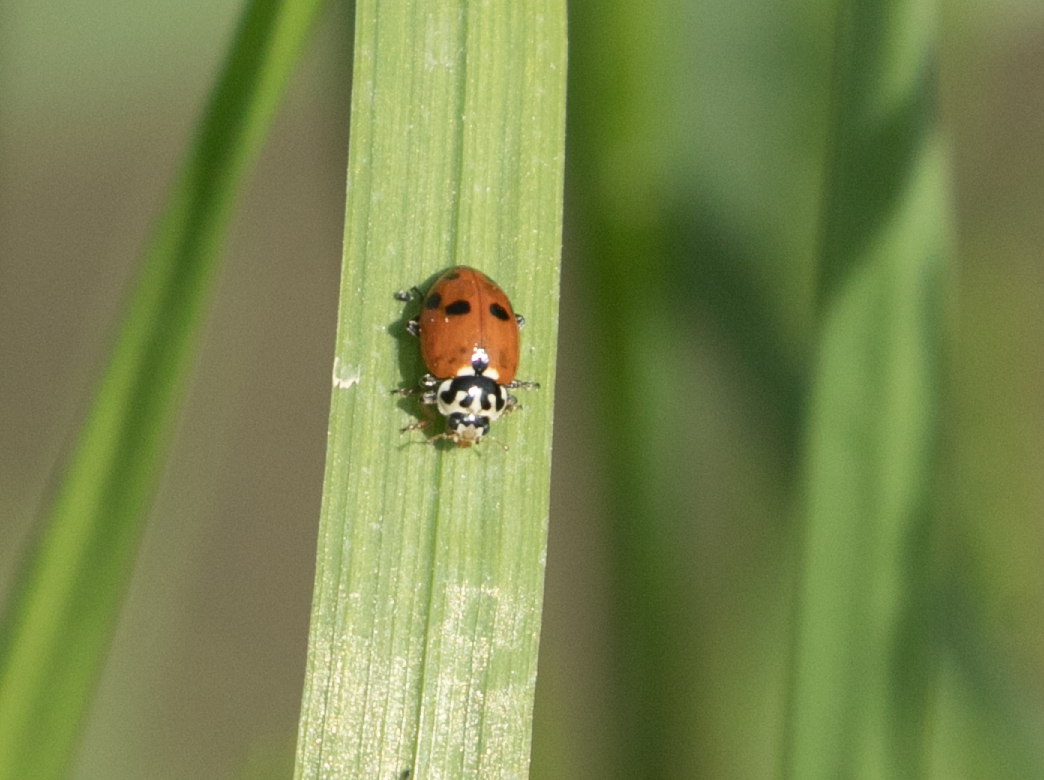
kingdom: Animalia
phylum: Arthropoda
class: Insecta
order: Coleoptera
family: Coccinellidae
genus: Hippodamia
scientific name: Hippodamia variegata
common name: Ladybird beetle
